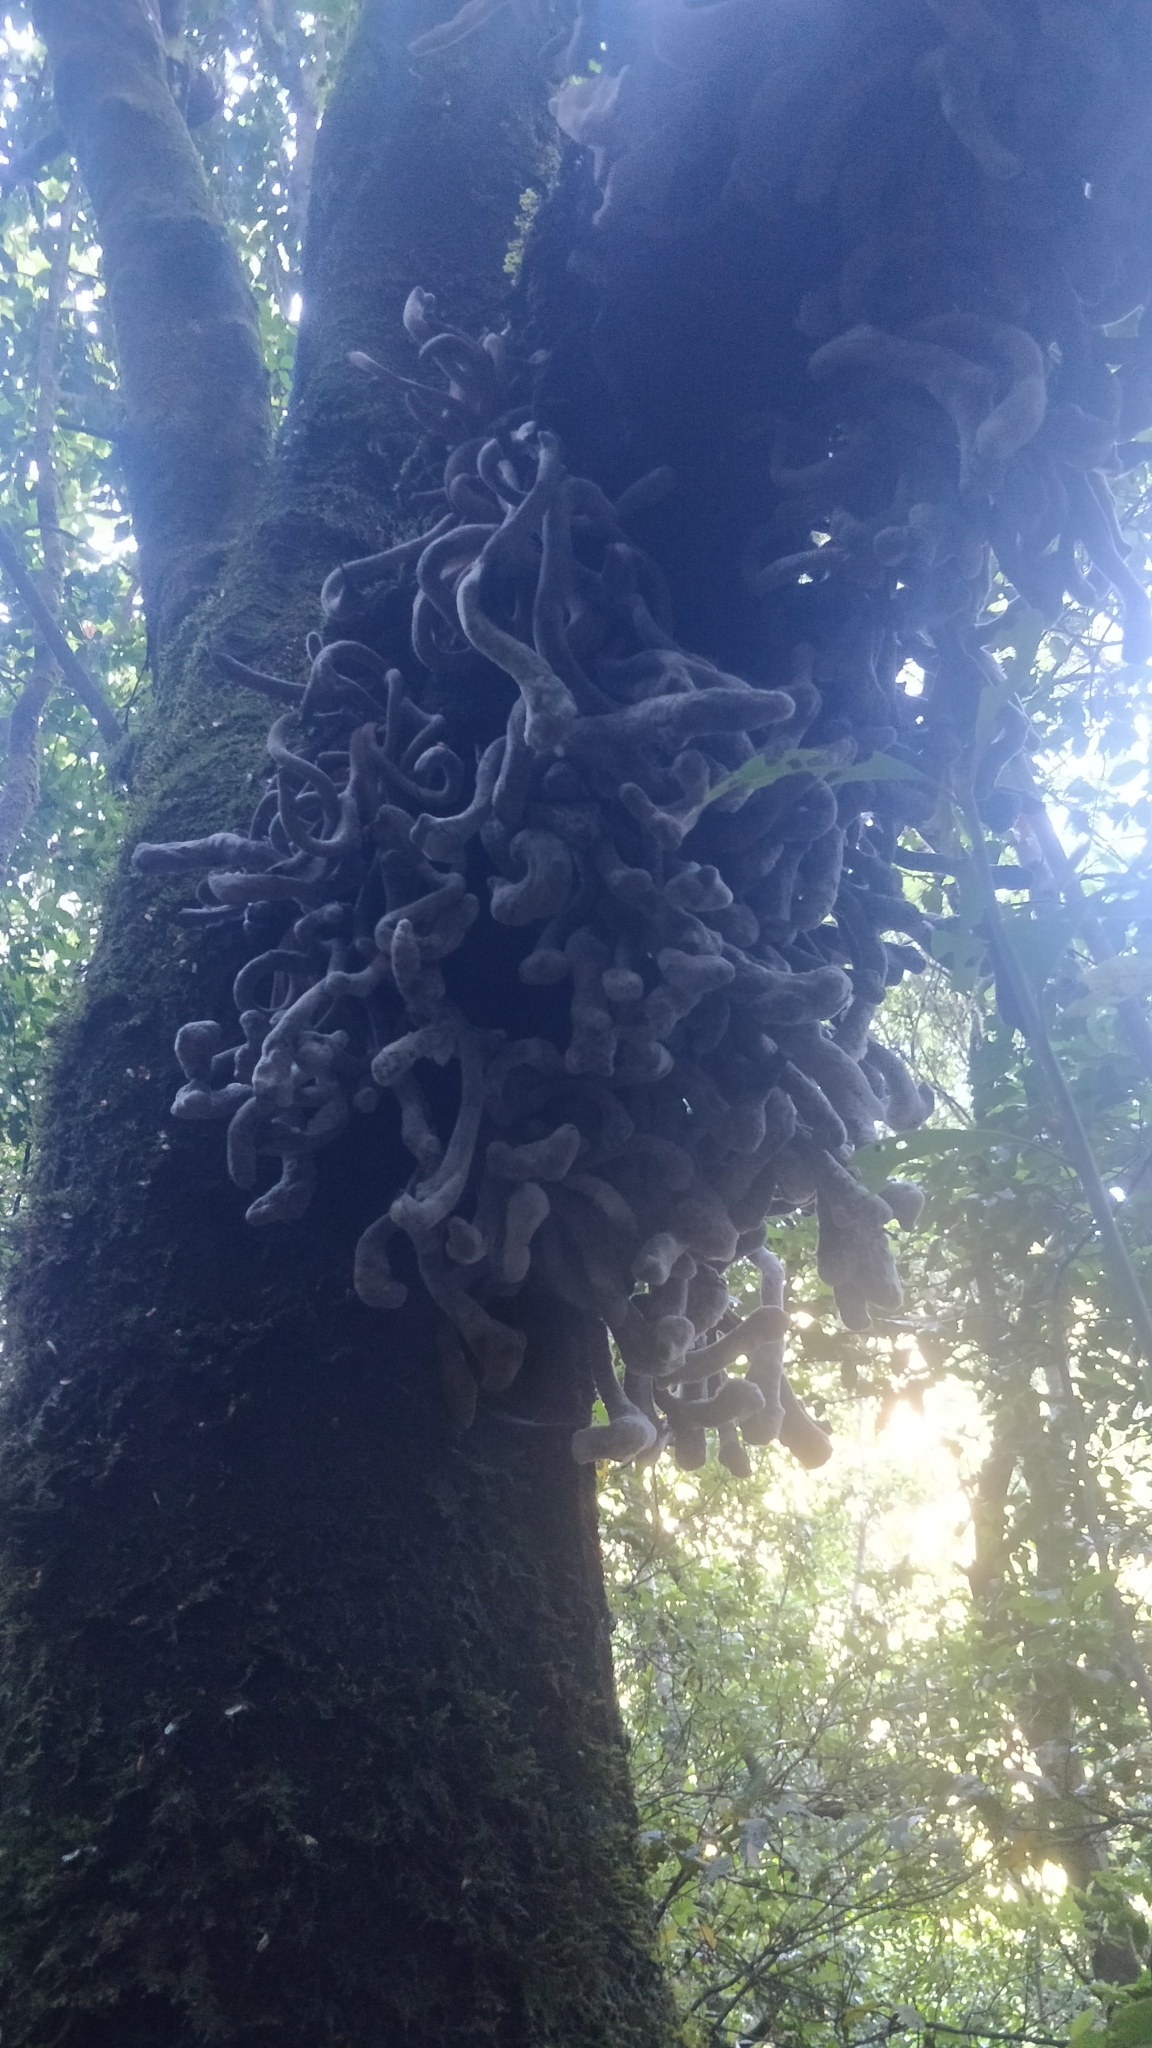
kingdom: Fungi
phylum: Basidiomycota
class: Exobasidiomycetes
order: Exobasidiales
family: Laurobasidiaceae
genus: Laurobasidium
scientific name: Laurobasidium lauri
